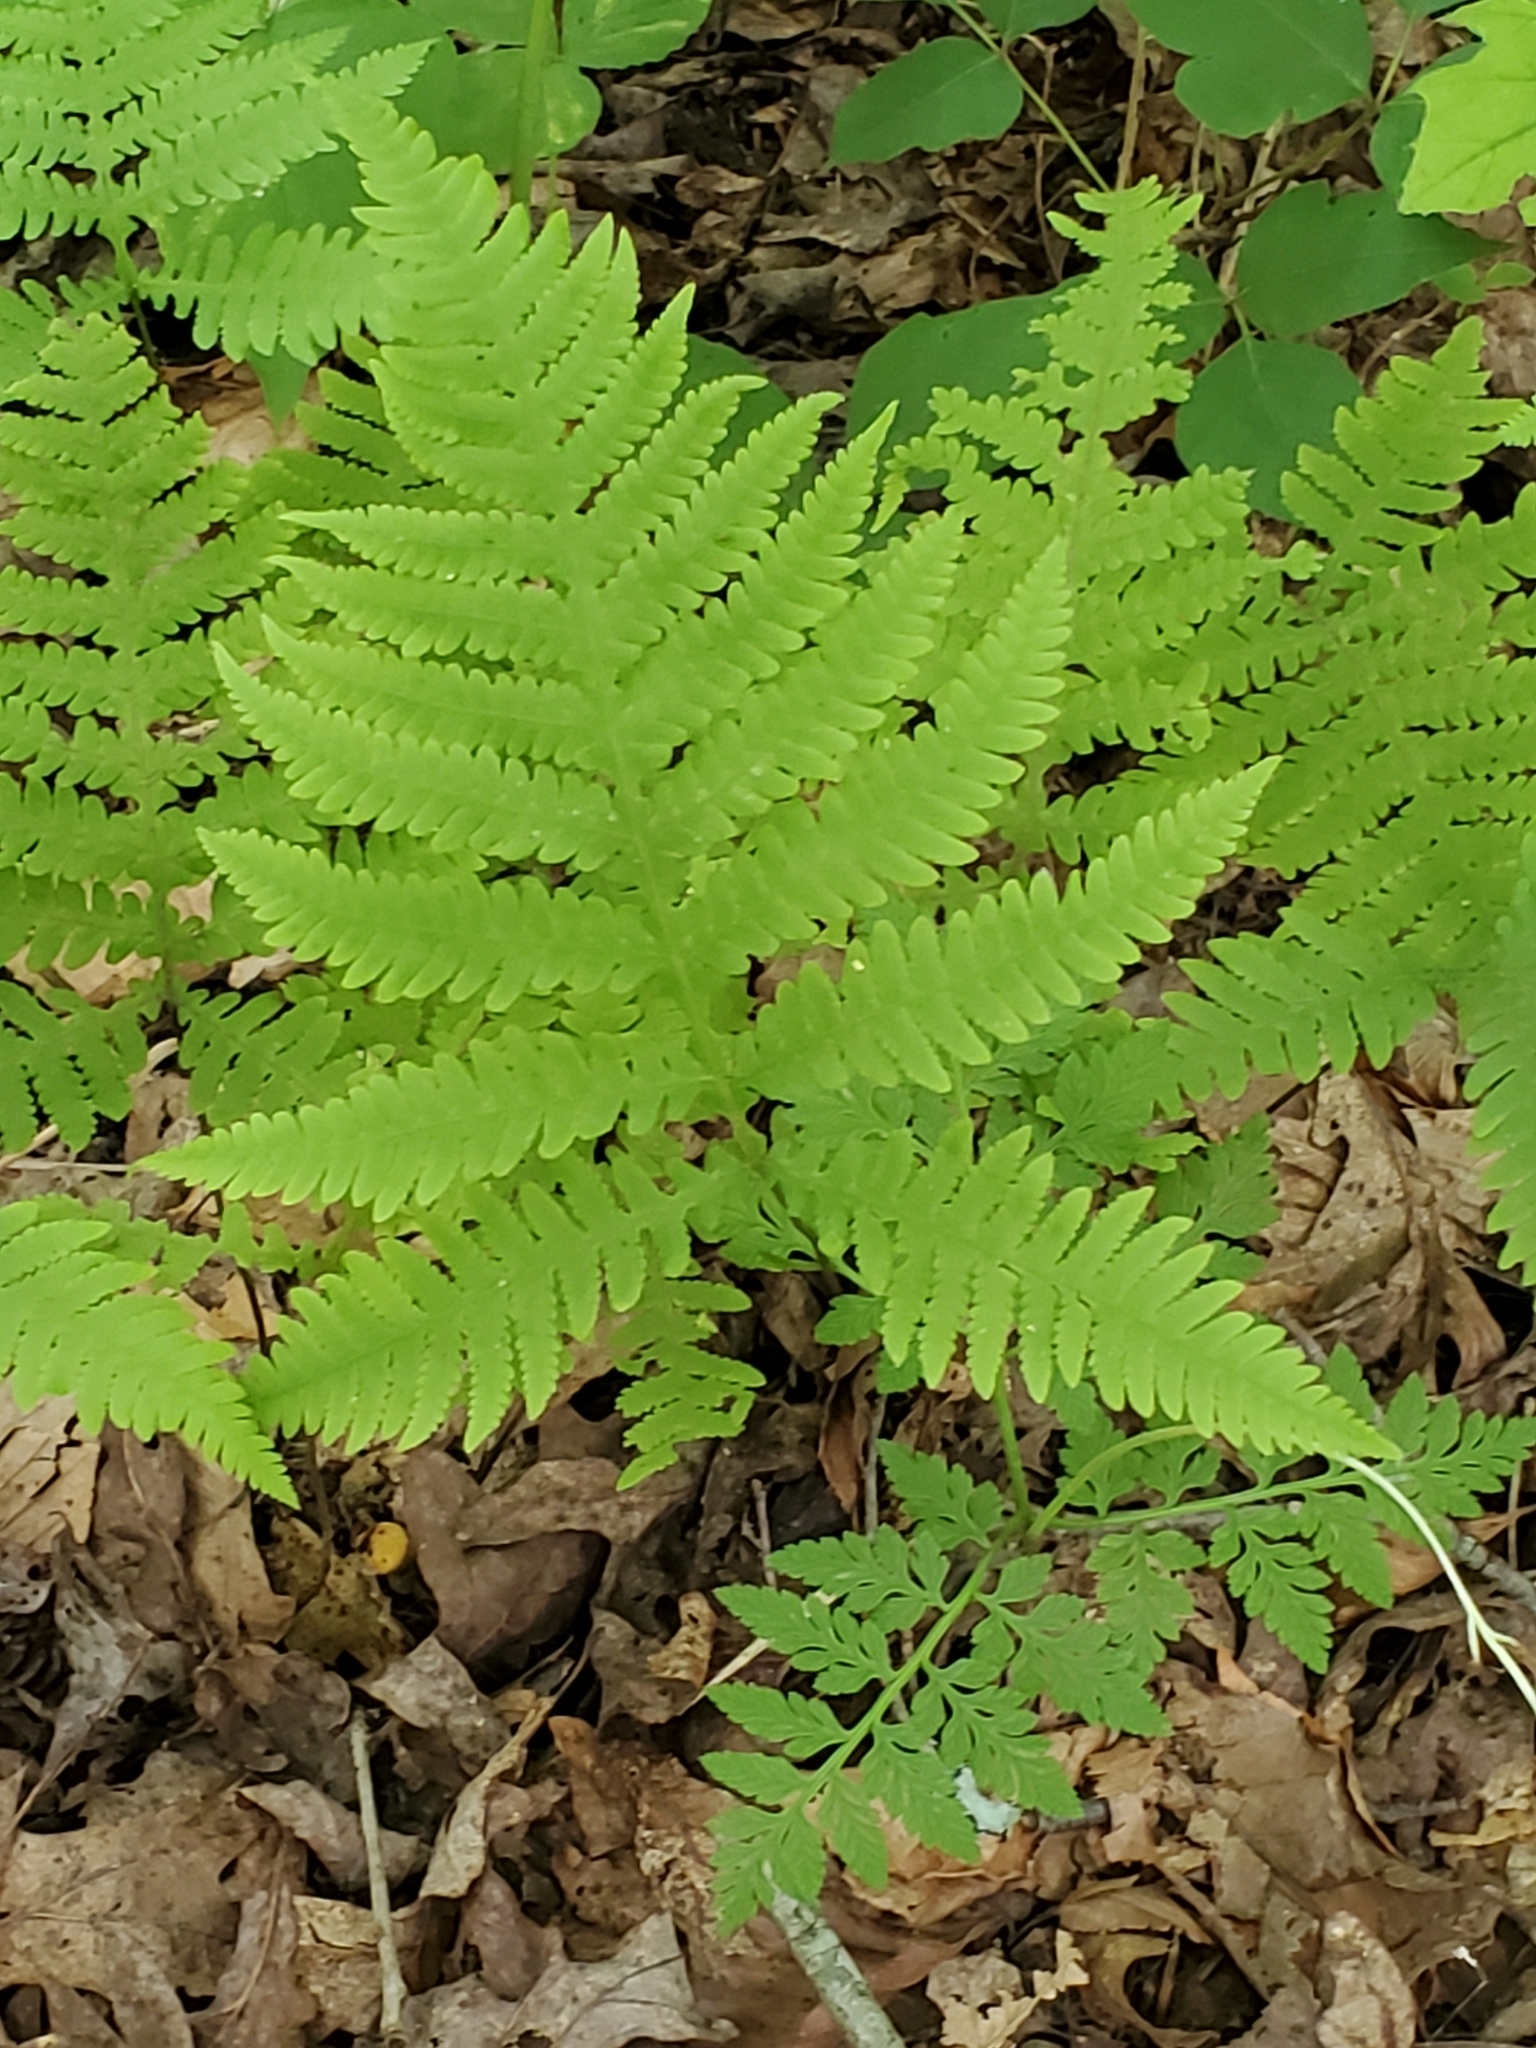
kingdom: Plantae
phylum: Tracheophyta
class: Polypodiopsida
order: Polypodiales
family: Thelypteridaceae
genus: Phegopteris
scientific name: Phegopteris hexagonoptera
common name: Broad beech fern
